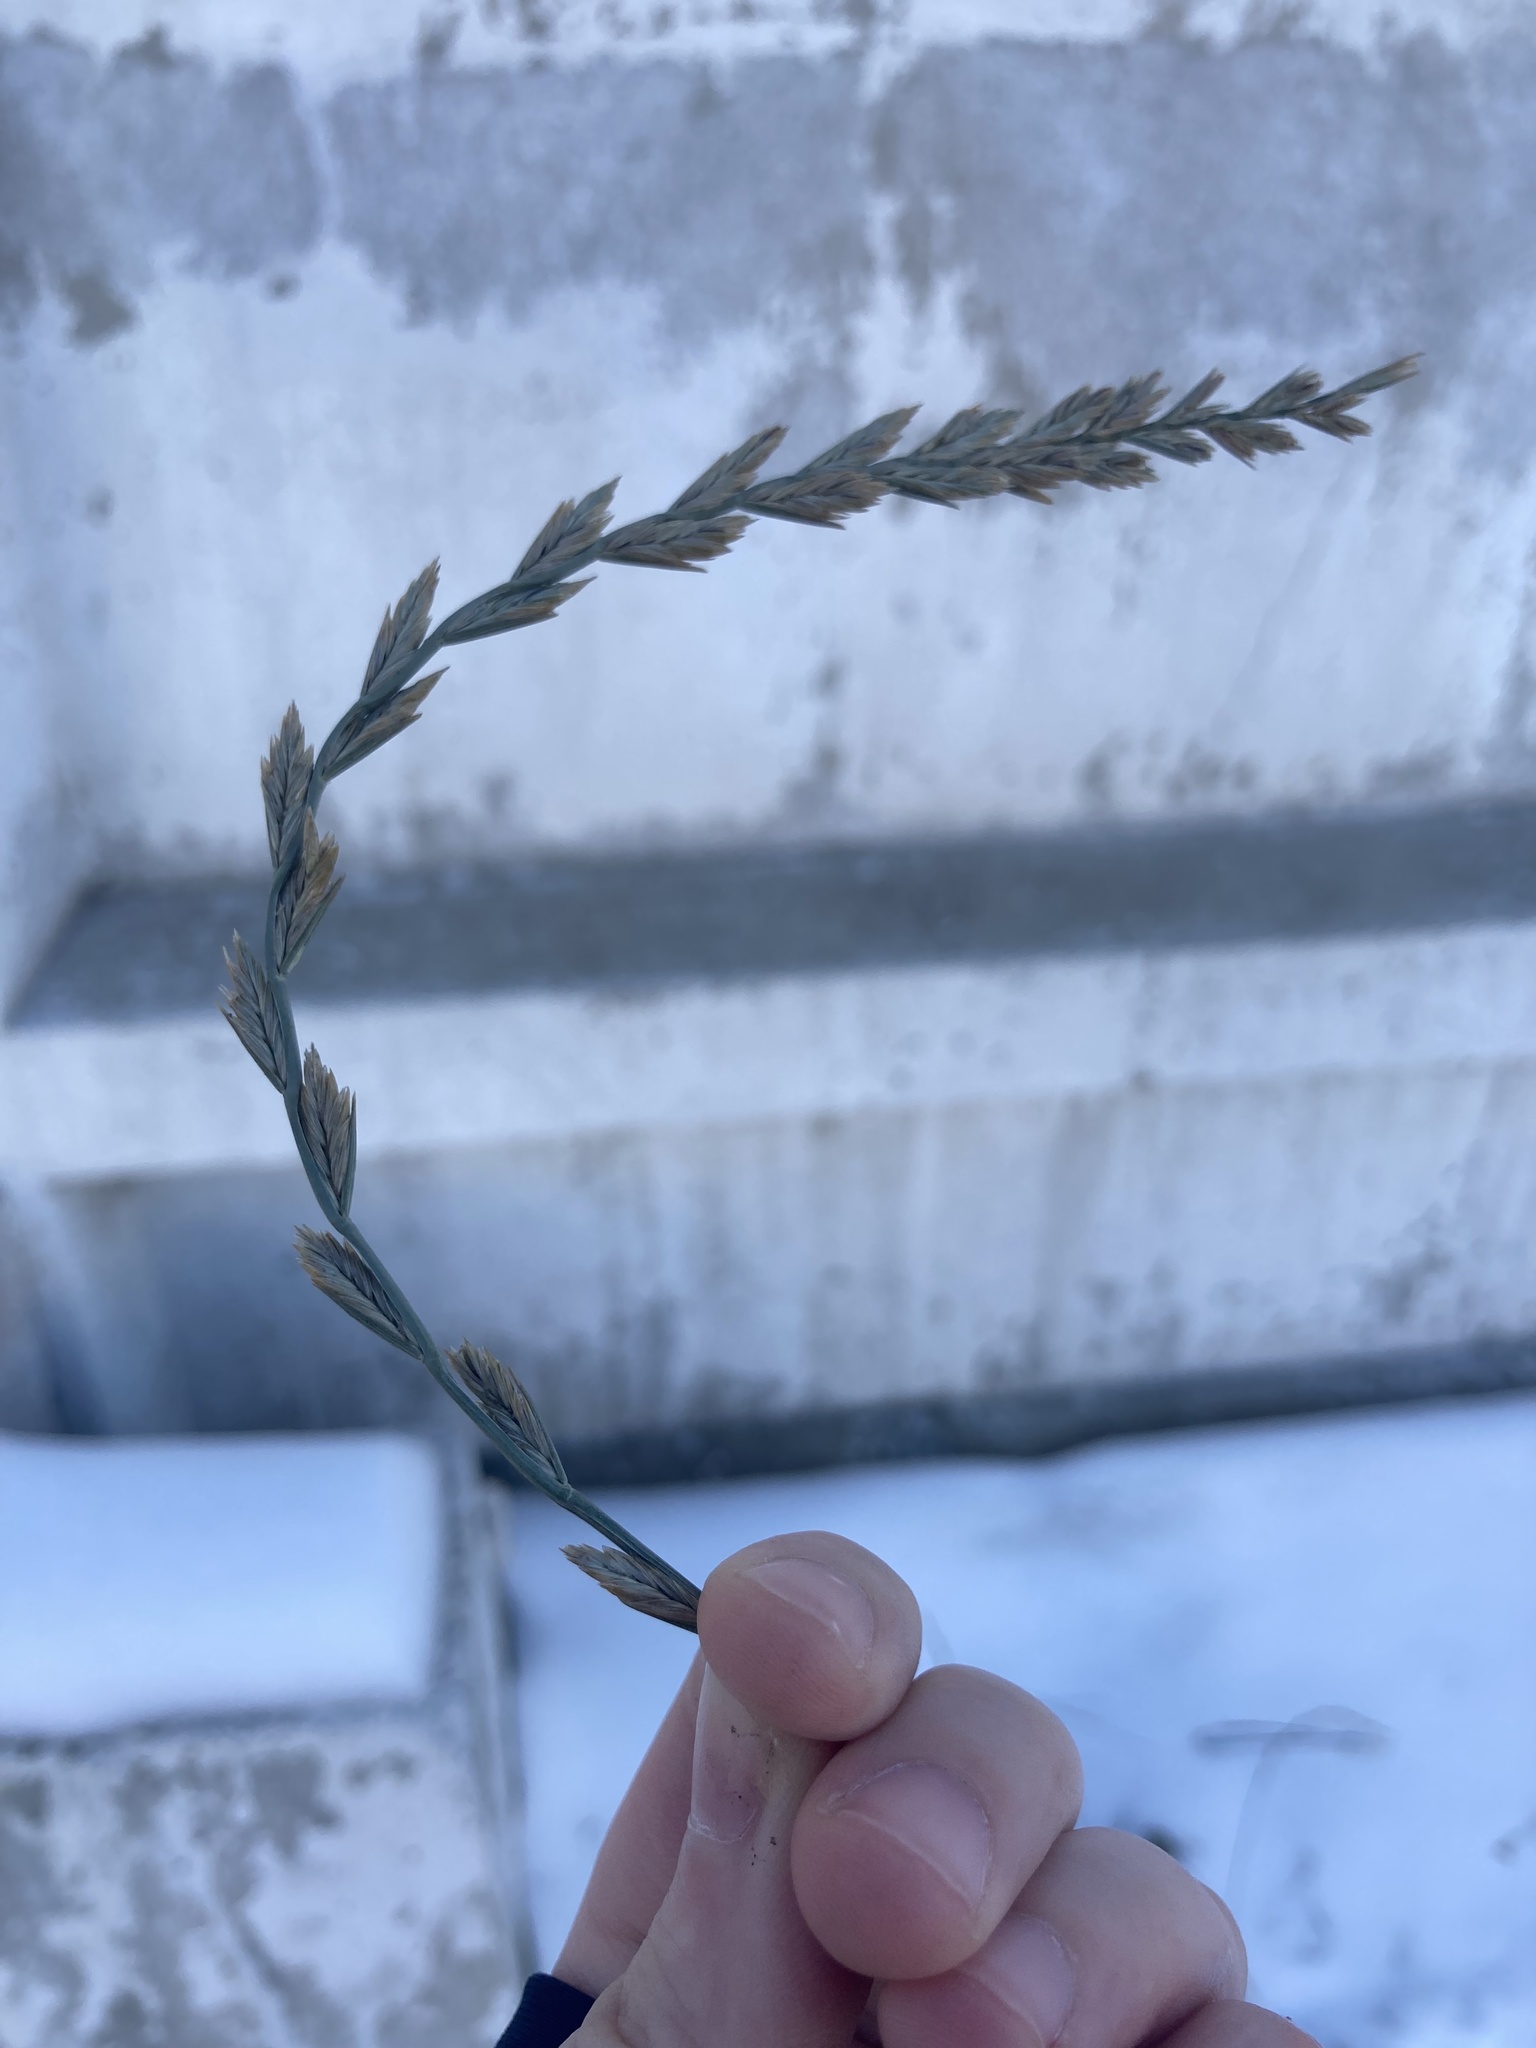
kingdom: Plantae
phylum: Tracheophyta
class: Liliopsida
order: Poales
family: Poaceae
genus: Lolium
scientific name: Lolium perenne
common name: Perennial ryegrass
